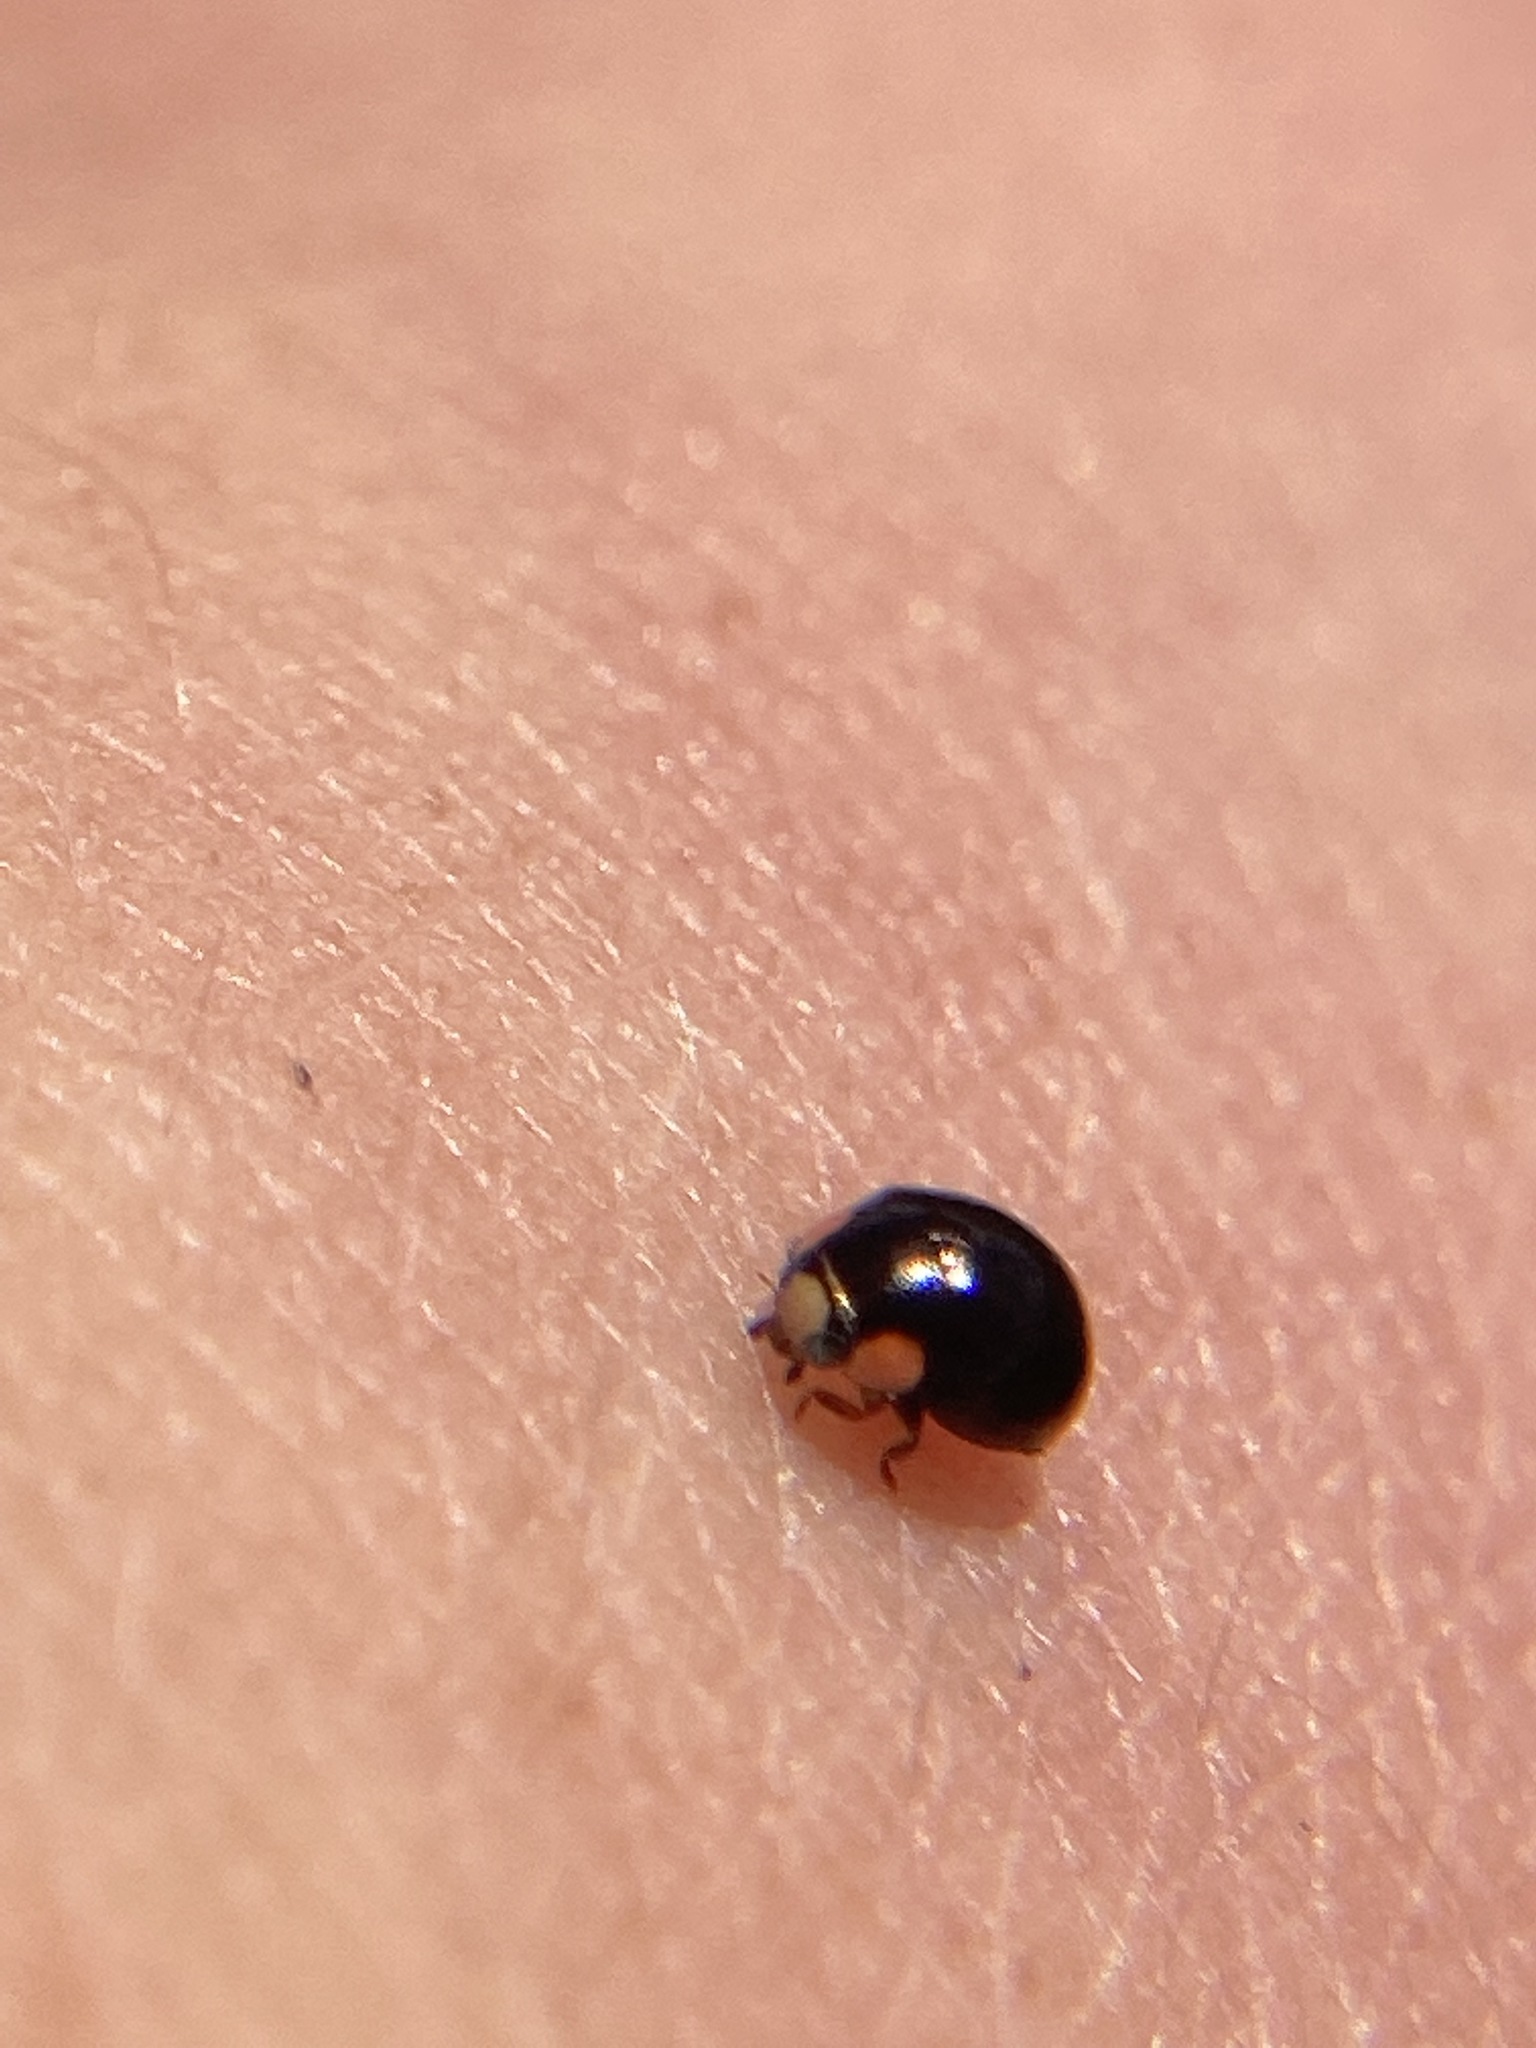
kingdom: Animalia
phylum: Arthropoda
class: Insecta
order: Coleoptera
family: Coccinellidae
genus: Hyperaspis
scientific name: Hyperaspis bigeminata
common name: Bigeminate sigil lady beetle
